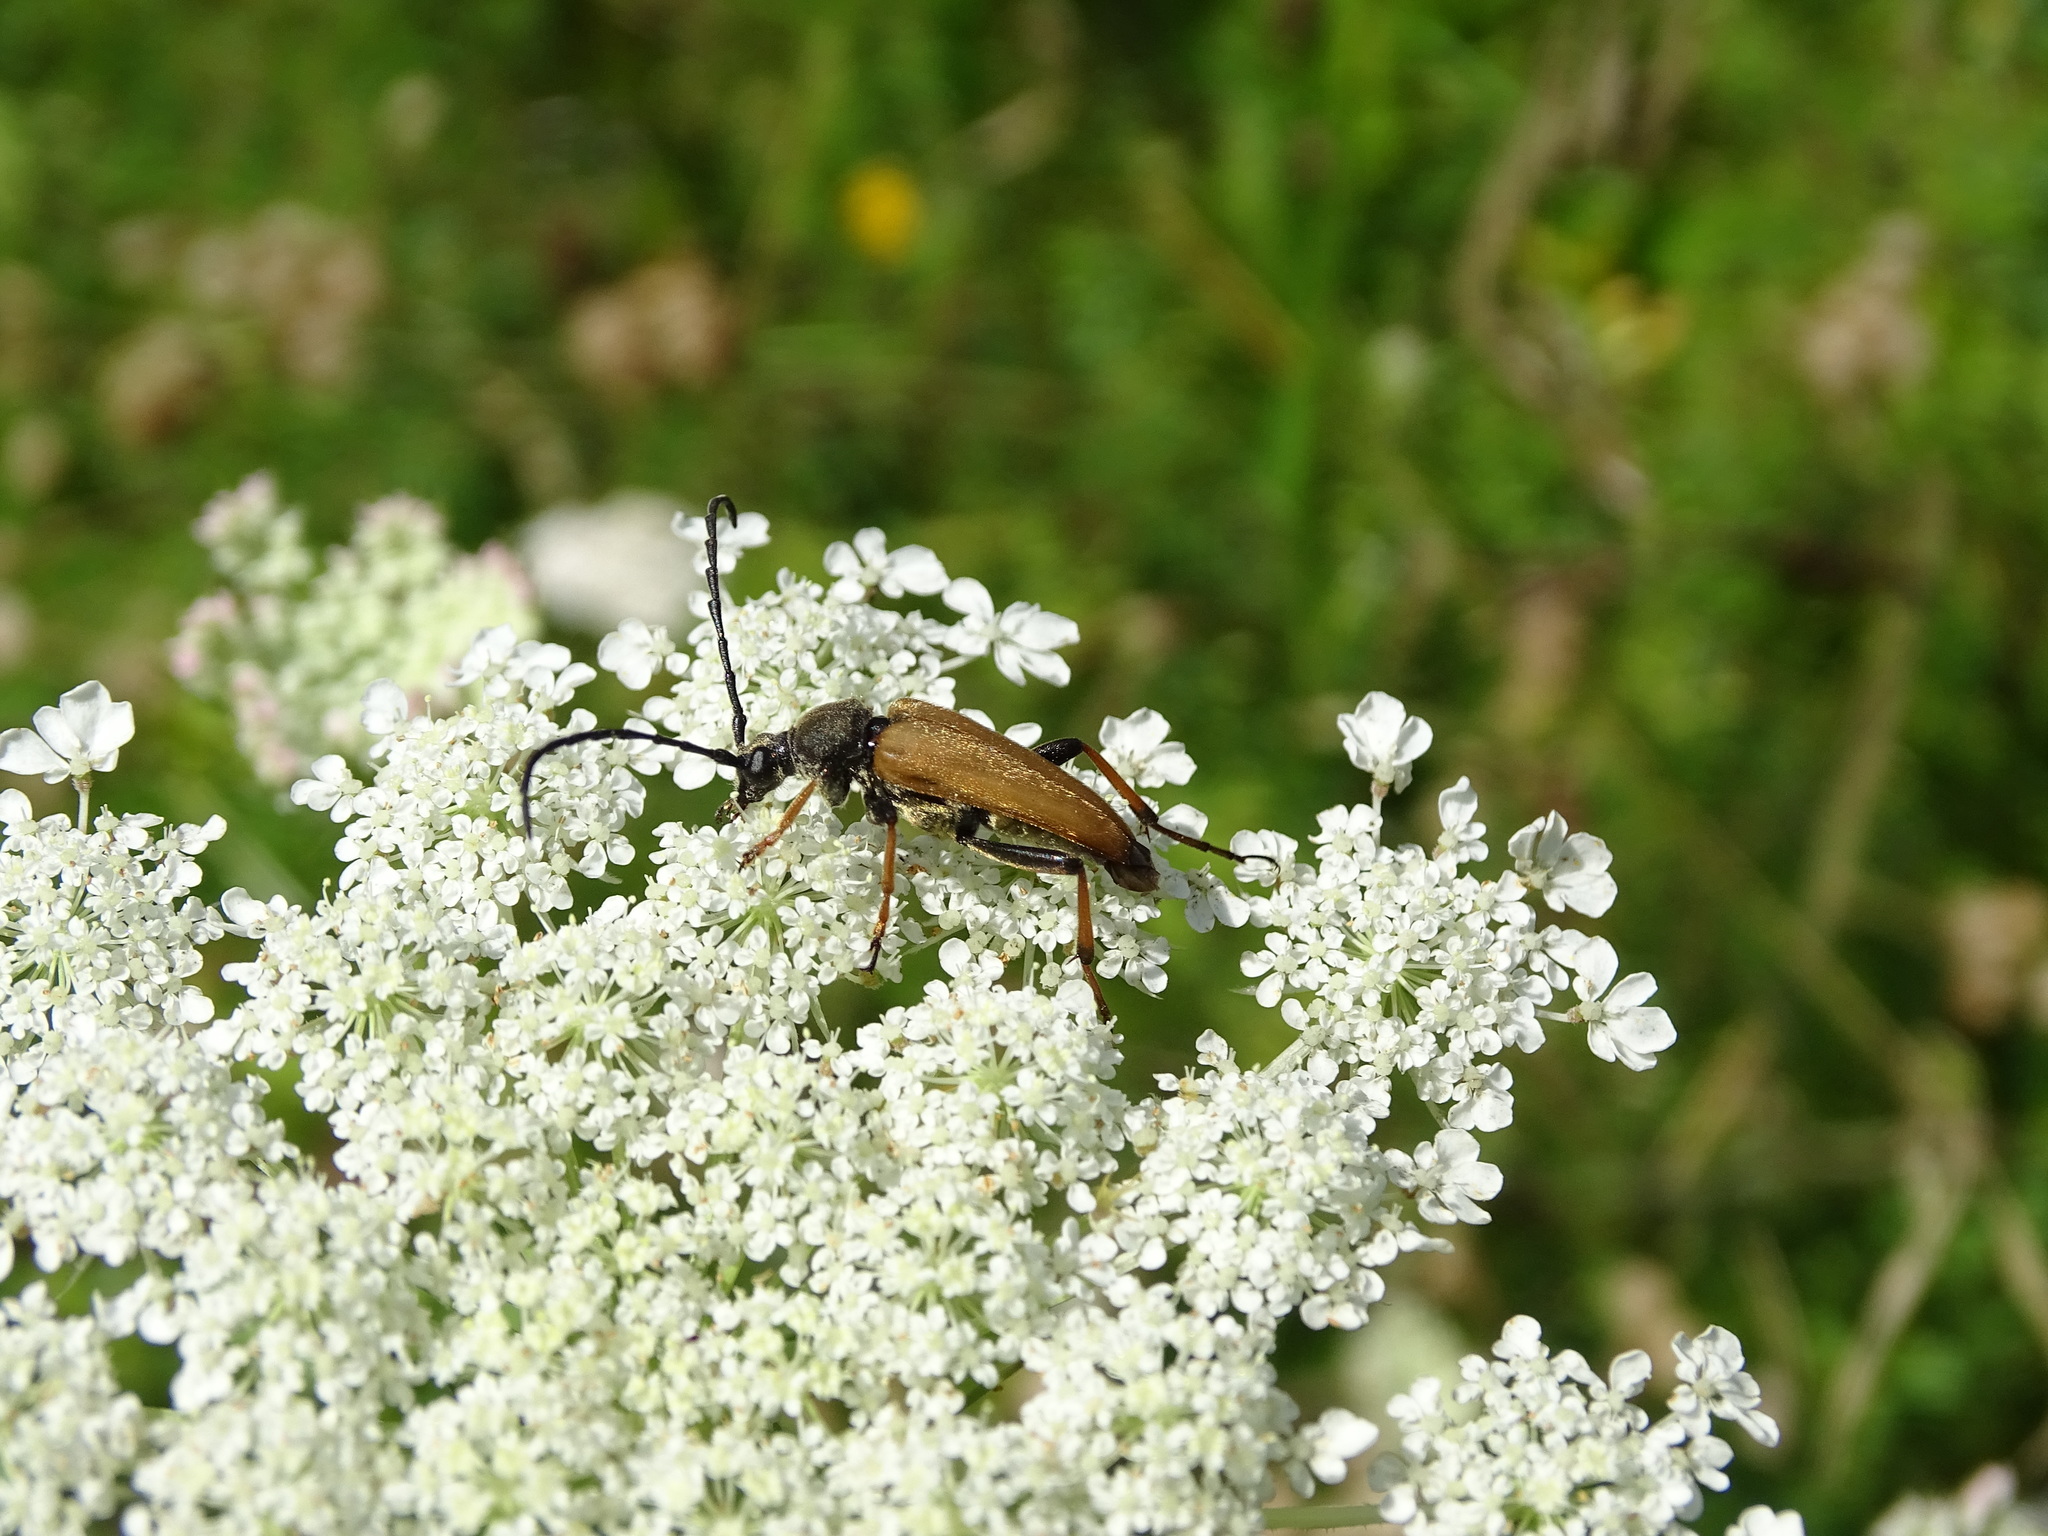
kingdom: Animalia
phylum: Arthropoda
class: Insecta
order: Coleoptera
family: Cerambycidae
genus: Stictoleptura
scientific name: Stictoleptura rubra
